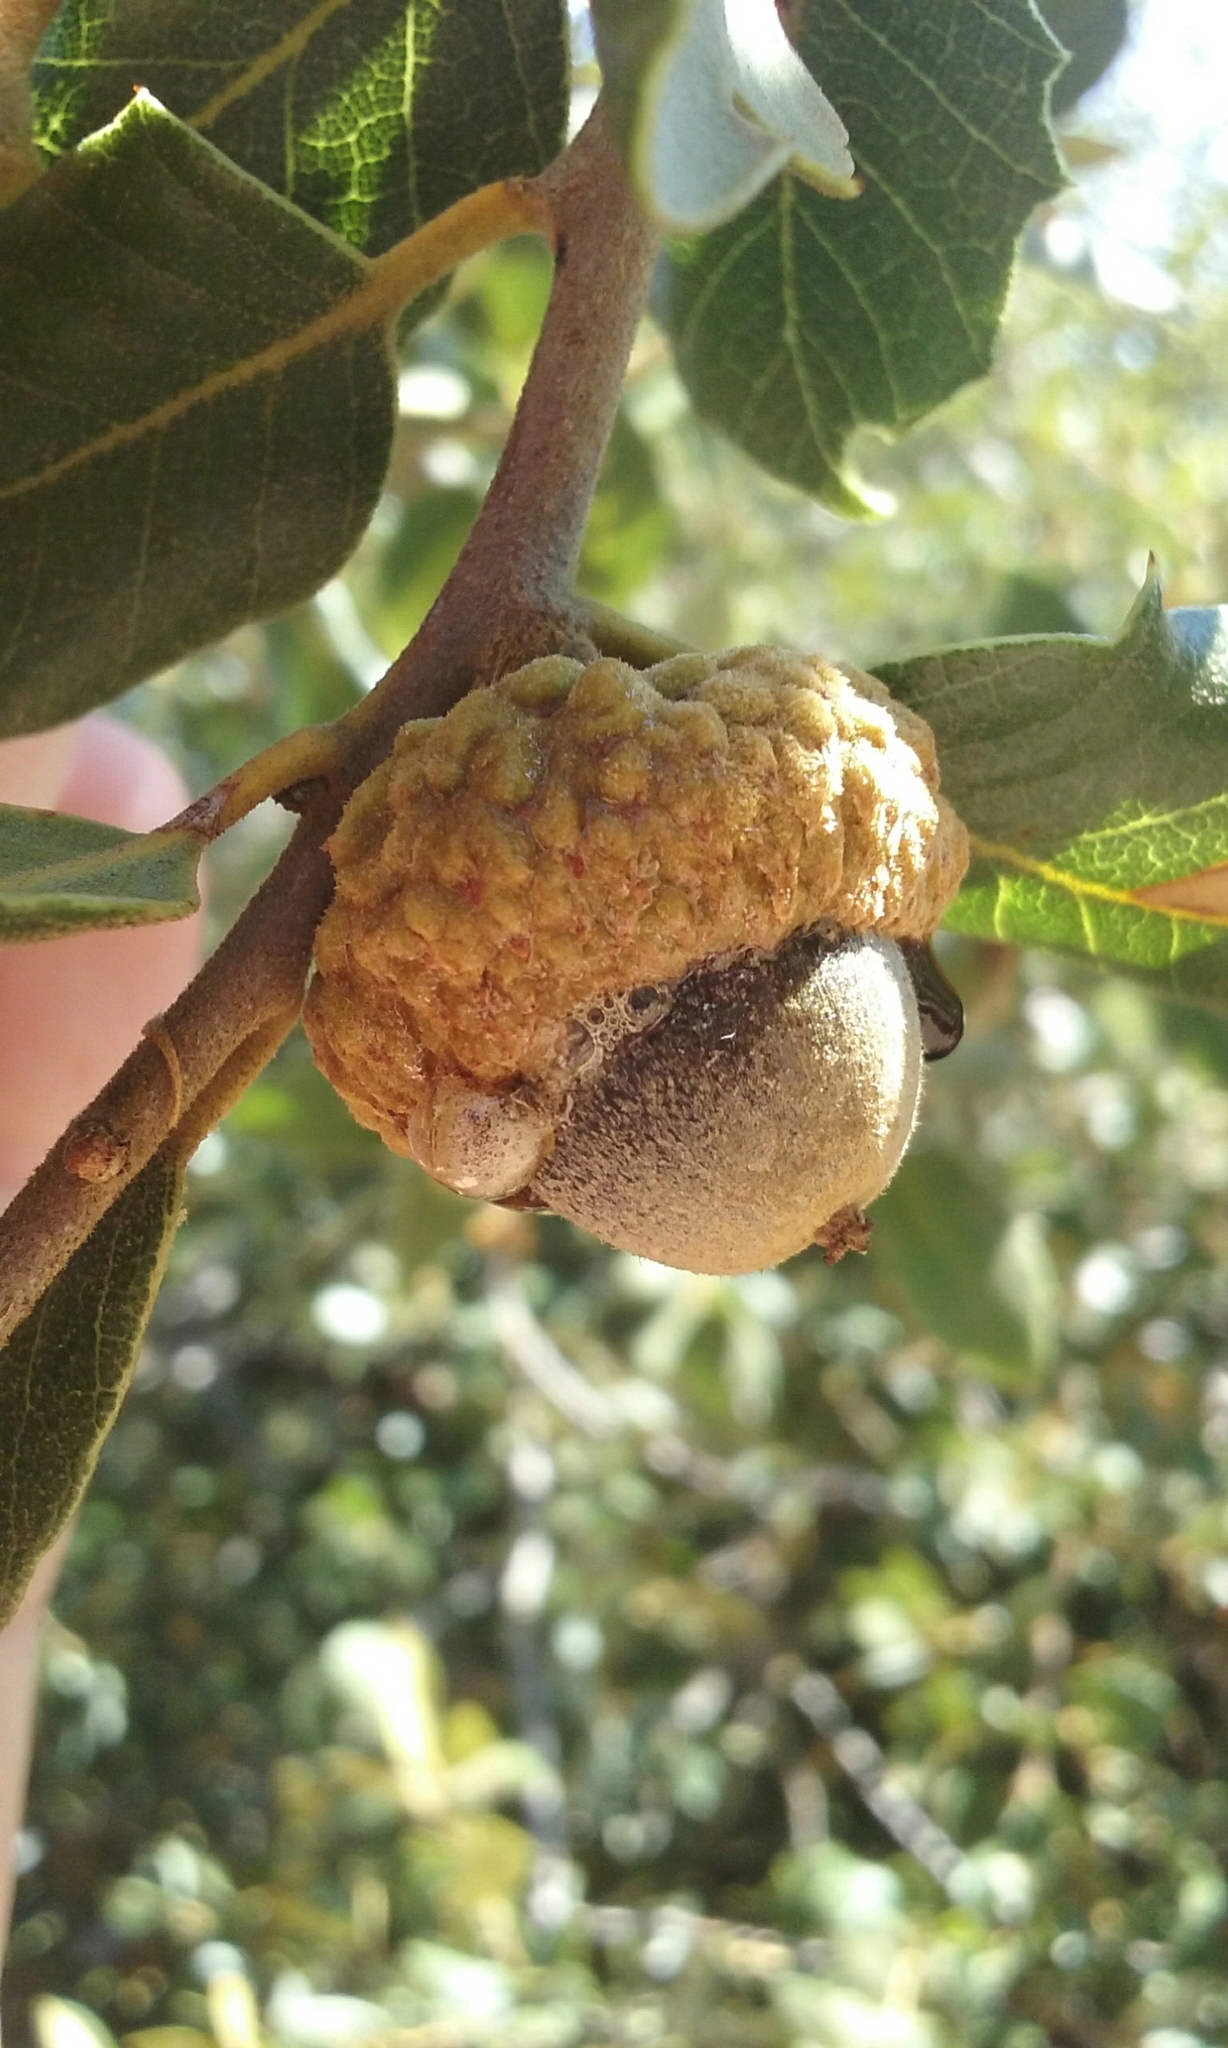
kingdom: Plantae
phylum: Tracheophyta
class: Magnoliopsida
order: Fagales
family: Fagaceae
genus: Quercus
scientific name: Quercus chrysolepis
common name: Canyon live oak
